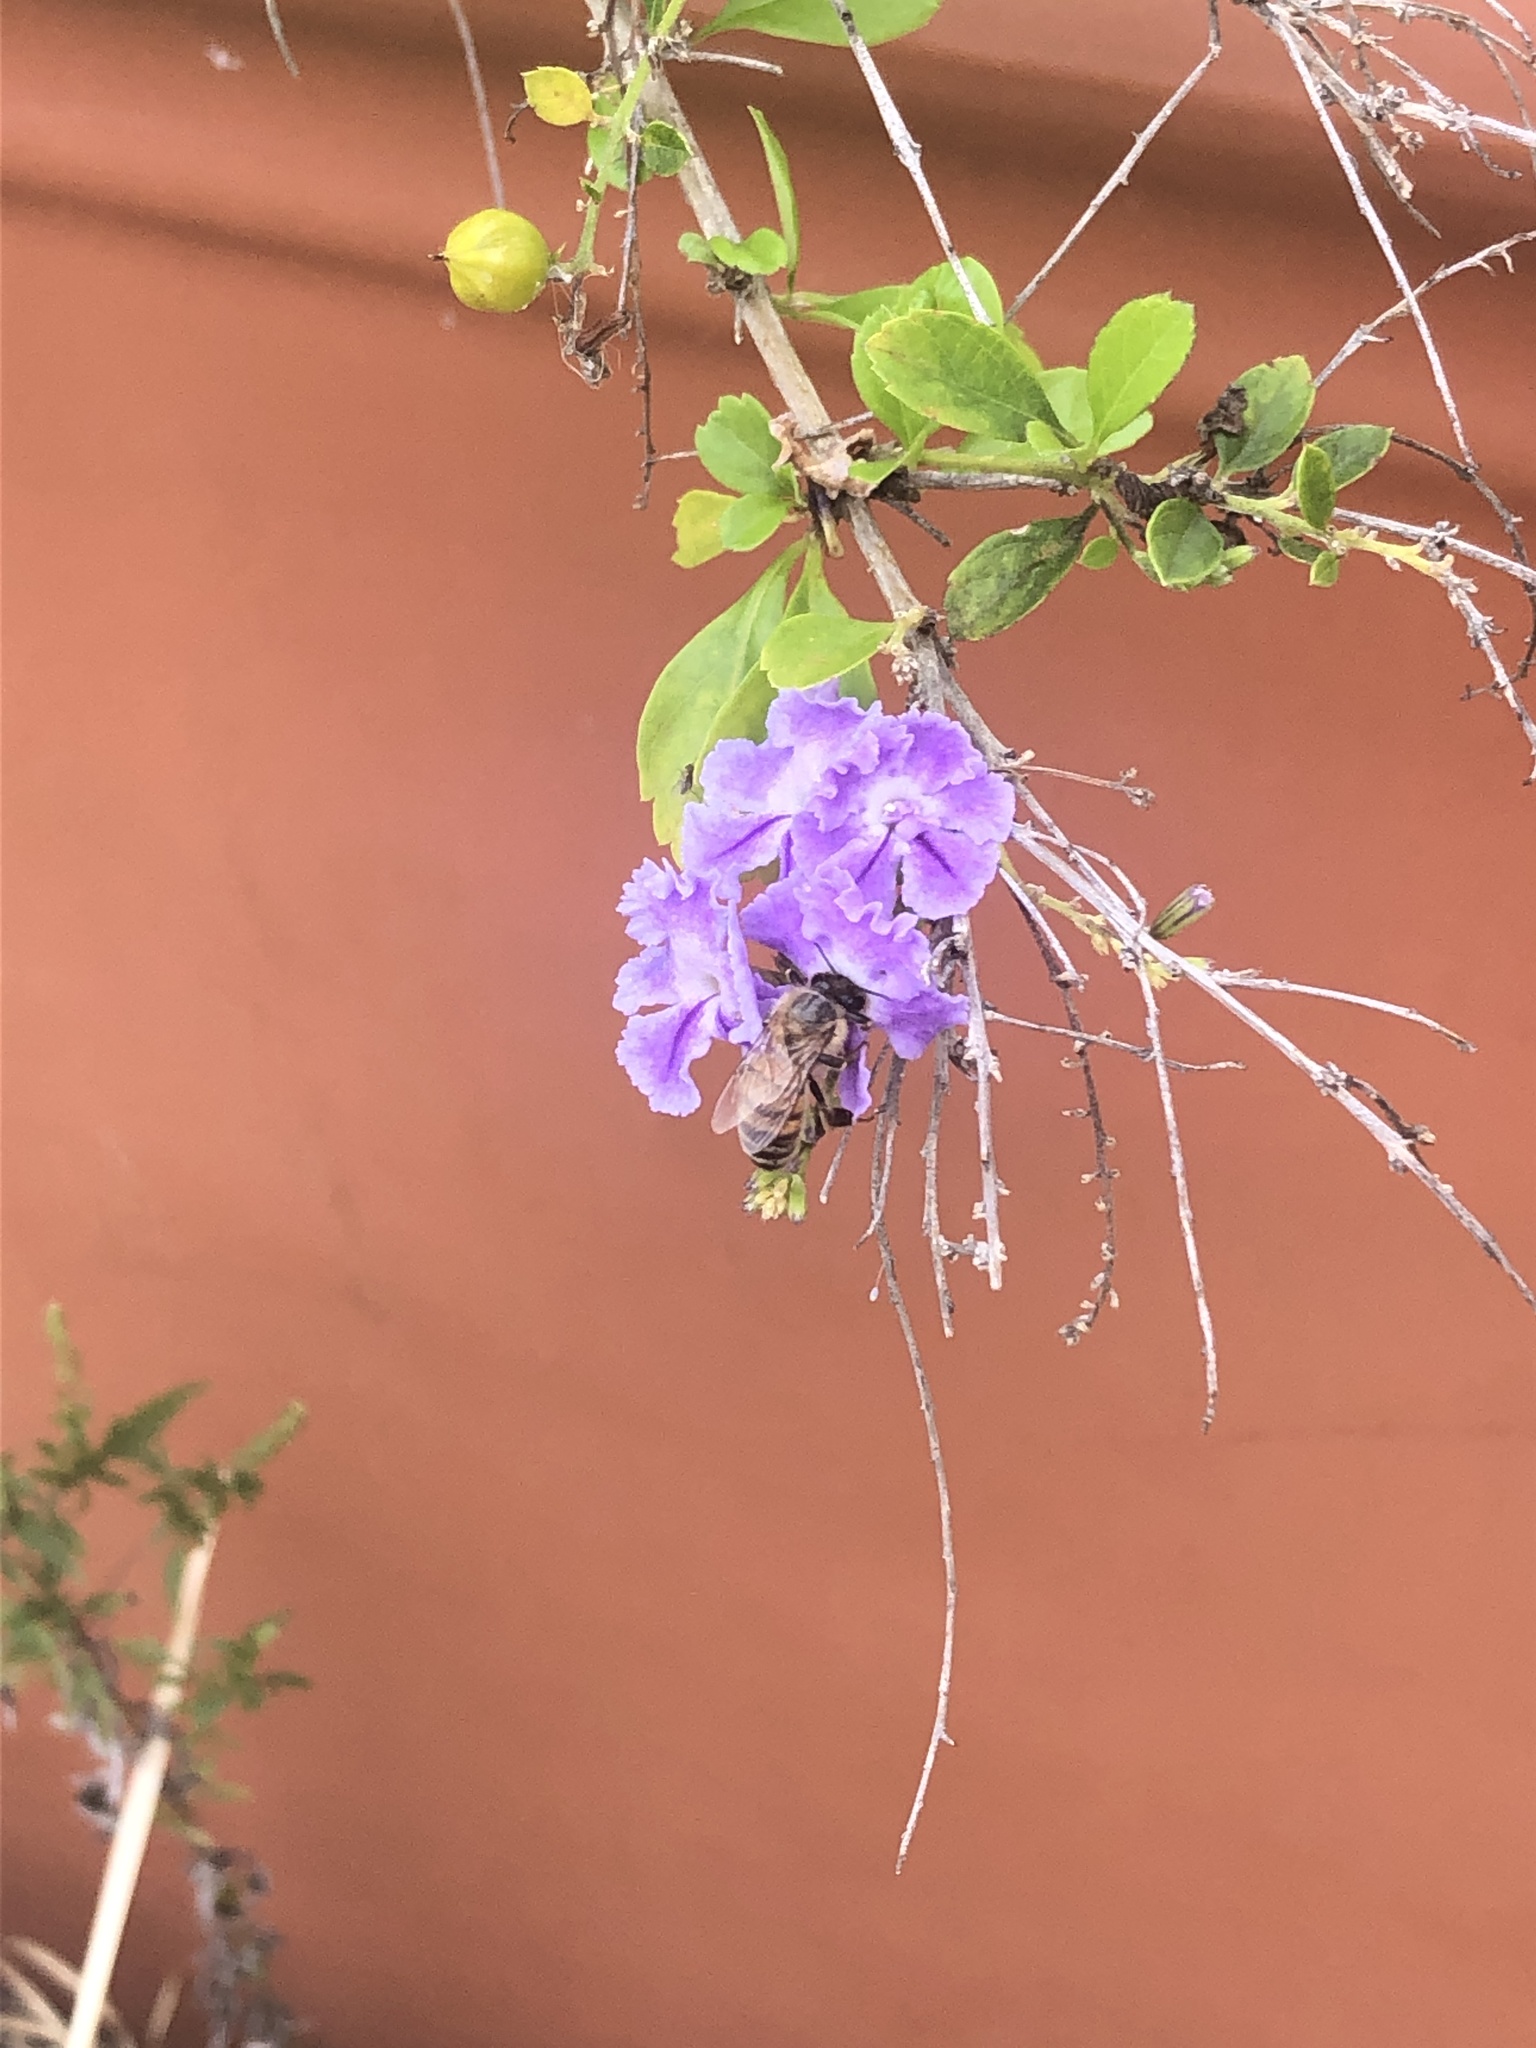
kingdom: Animalia
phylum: Arthropoda
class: Insecta
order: Hymenoptera
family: Apidae
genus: Apis
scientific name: Apis mellifera
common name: Honey bee
